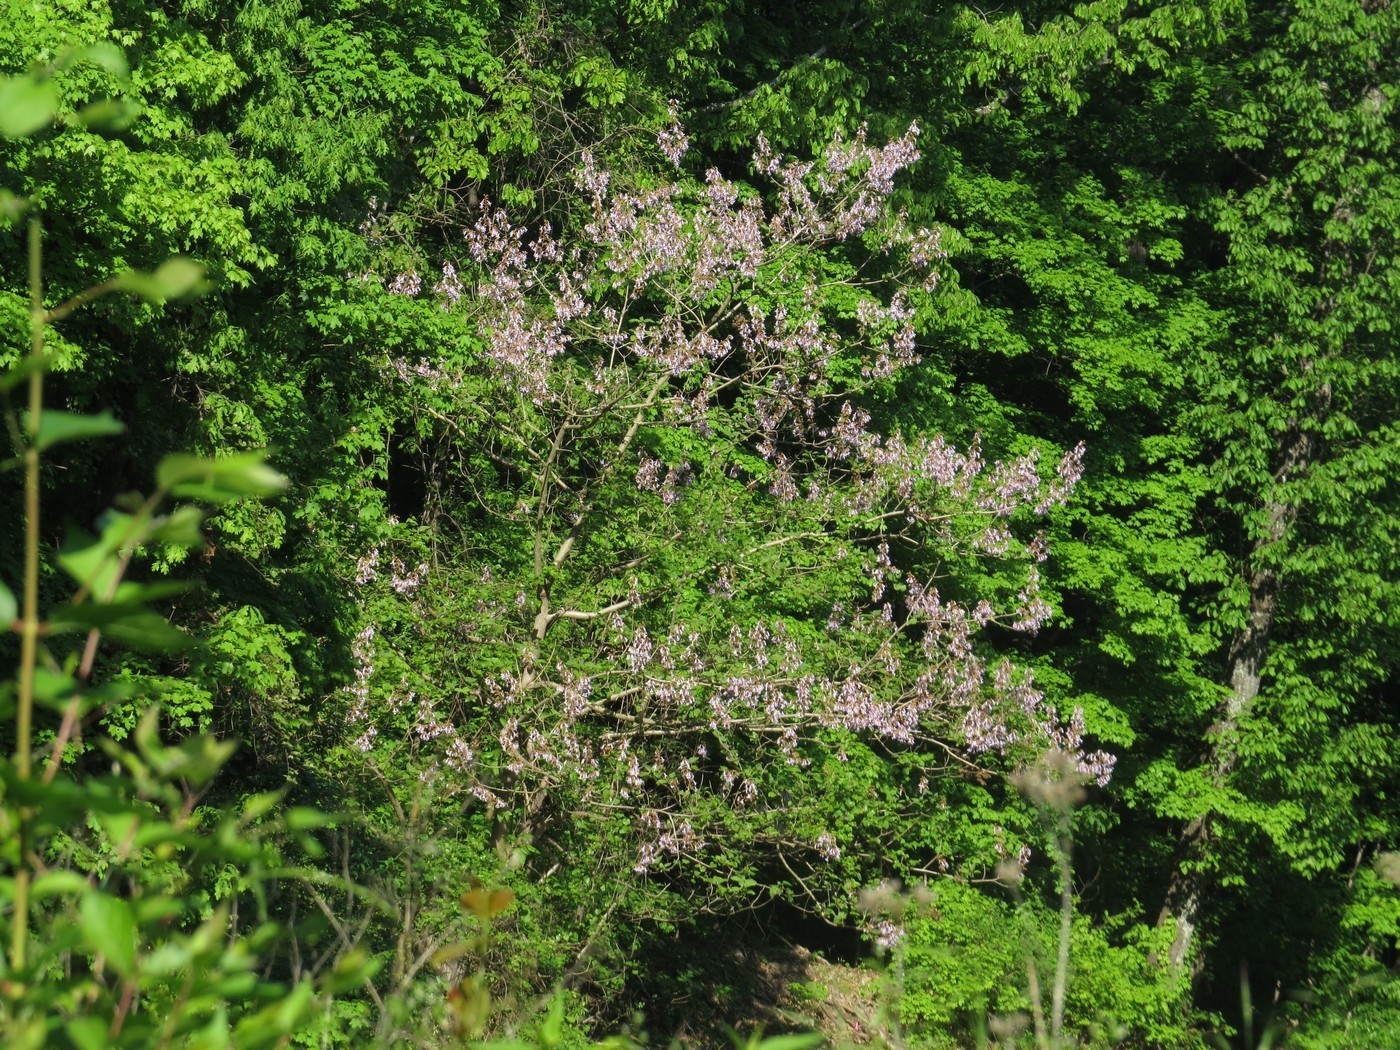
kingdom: Plantae
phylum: Tracheophyta
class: Magnoliopsida
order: Lamiales
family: Paulowniaceae
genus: Paulownia
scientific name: Paulownia tomentosa
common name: Foxglove-tree
